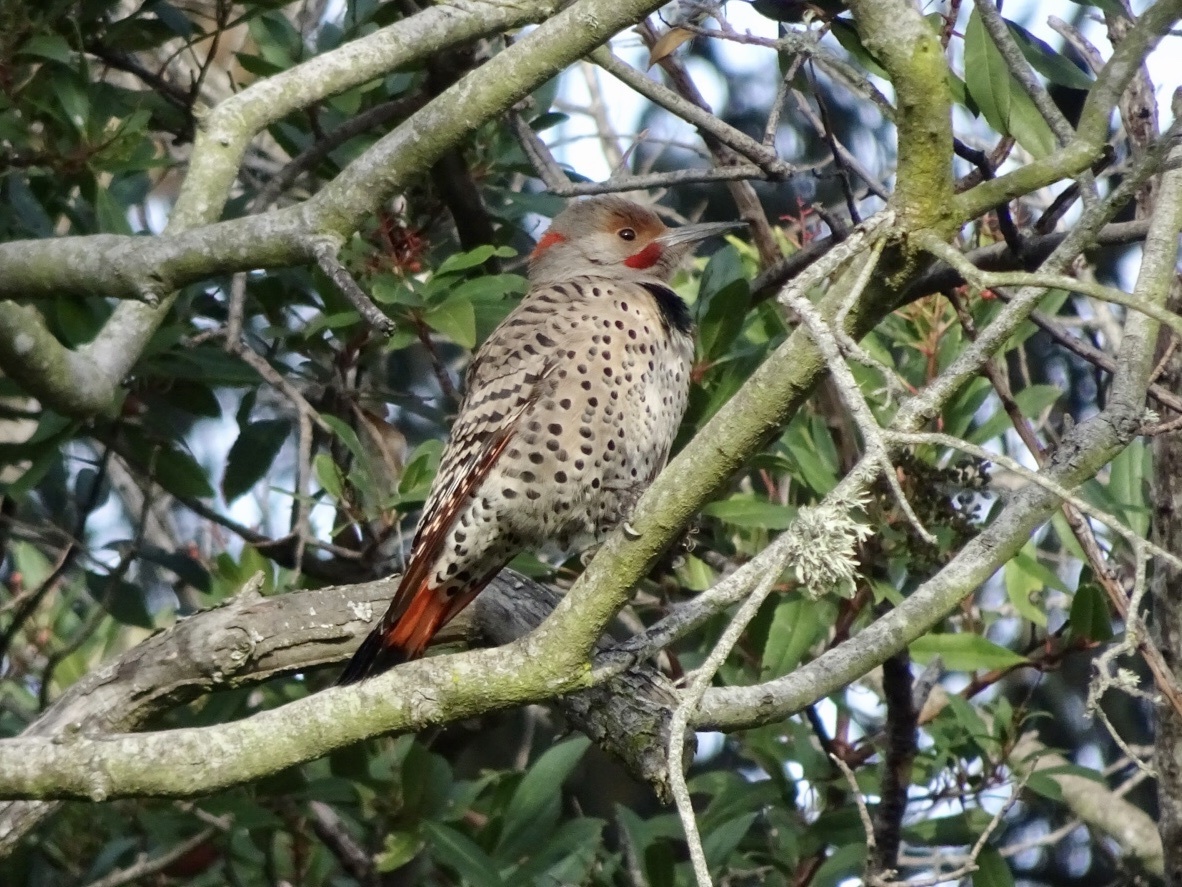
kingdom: Animalia
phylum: Chordata
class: Aves
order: Piciformes
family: Picidae
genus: Colaptes
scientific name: Colaptes
